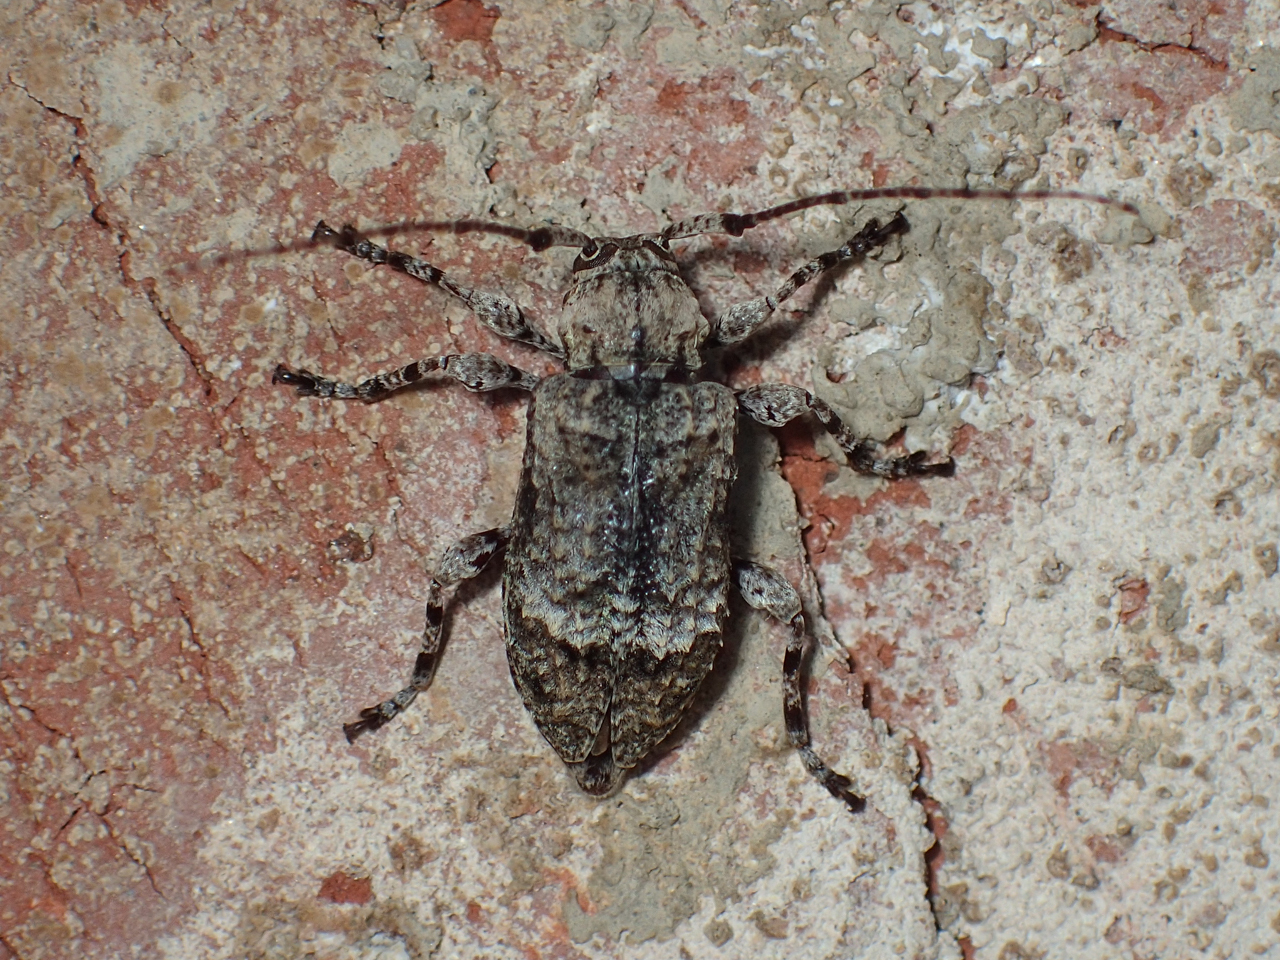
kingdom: Animalia
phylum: Arthropoda
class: Insecta
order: Coleoptera
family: Cerambycidae
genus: Leptostylus
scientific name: Leptostylus transversus
